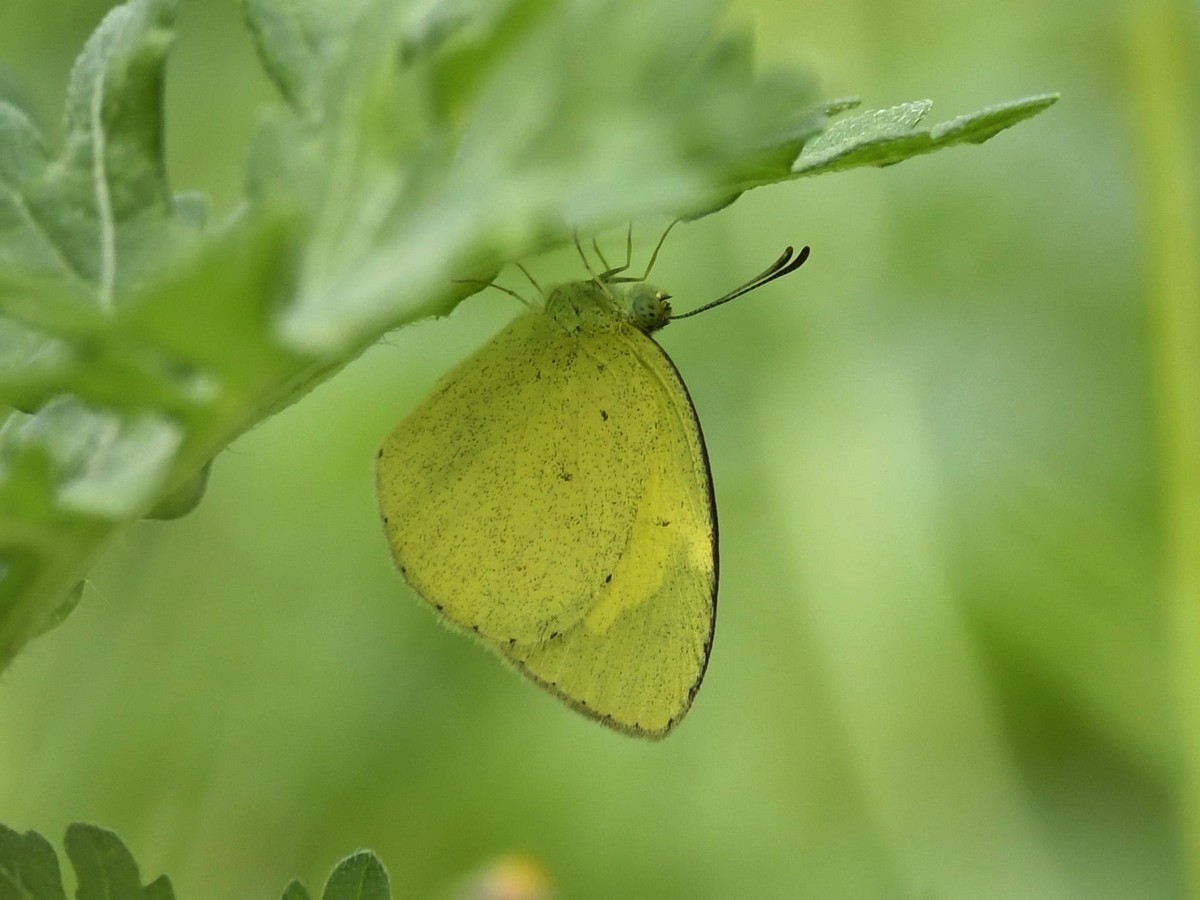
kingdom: Animalia
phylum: Arthropoda
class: Insecta
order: Lepidoptera
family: Pieridae
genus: Eurema
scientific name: Eurema brigitta
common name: Small grass yellow
